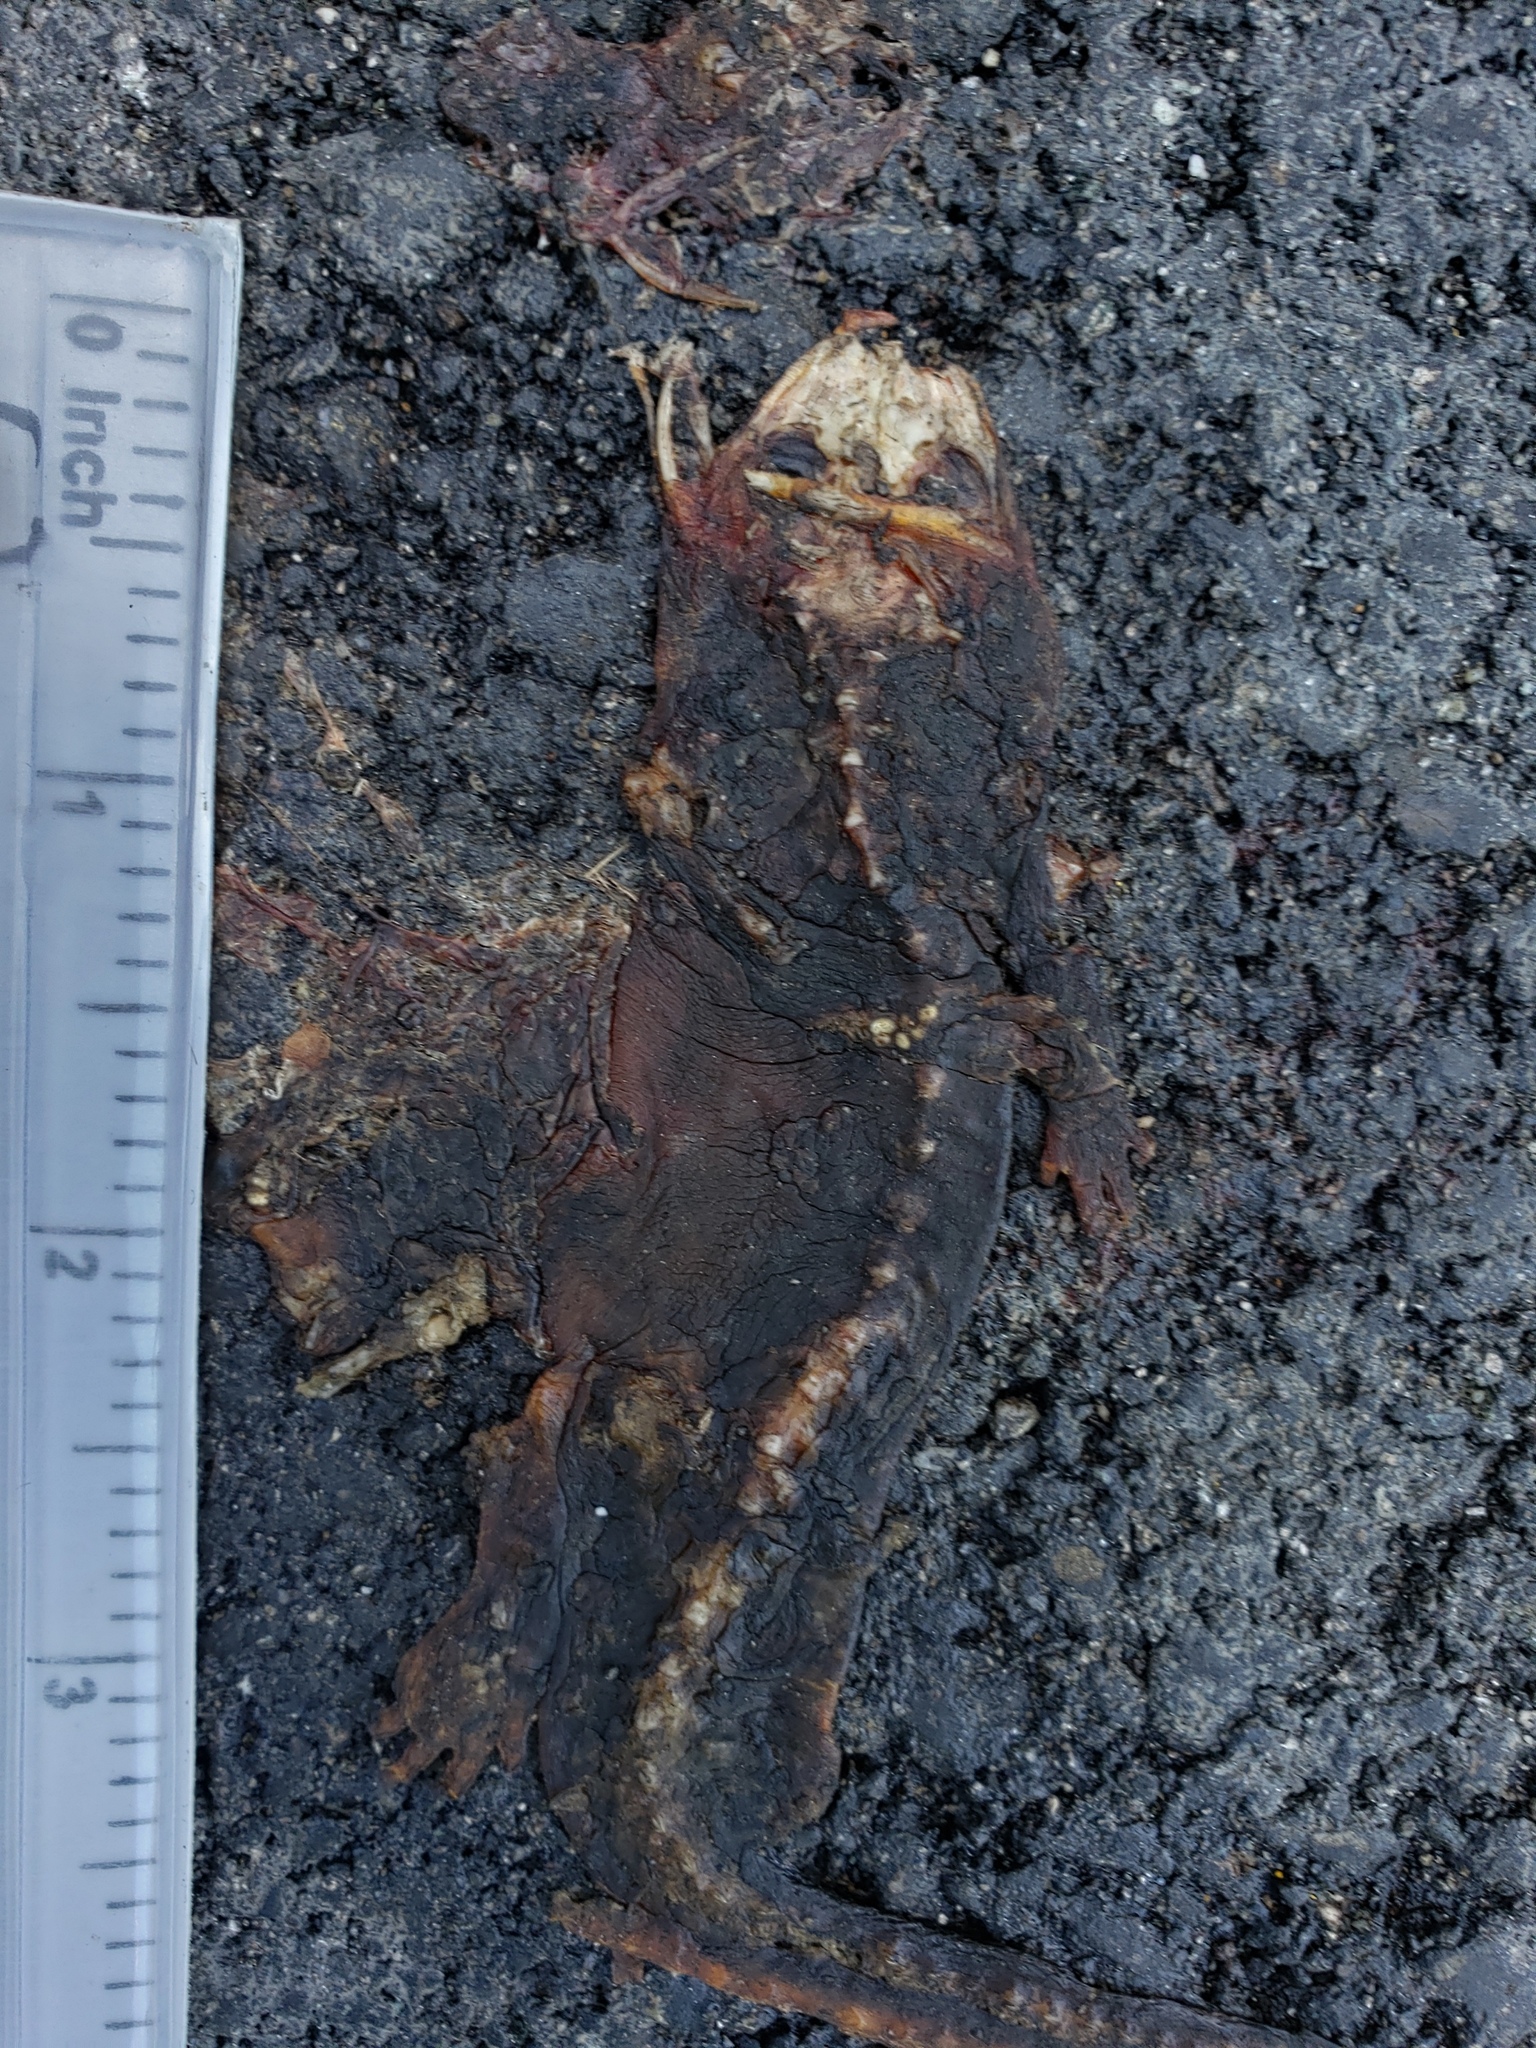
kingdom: Animalia
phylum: Chordata
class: Amphibia
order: Caudata
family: Salamandridae
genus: Taricha
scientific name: Taricha
